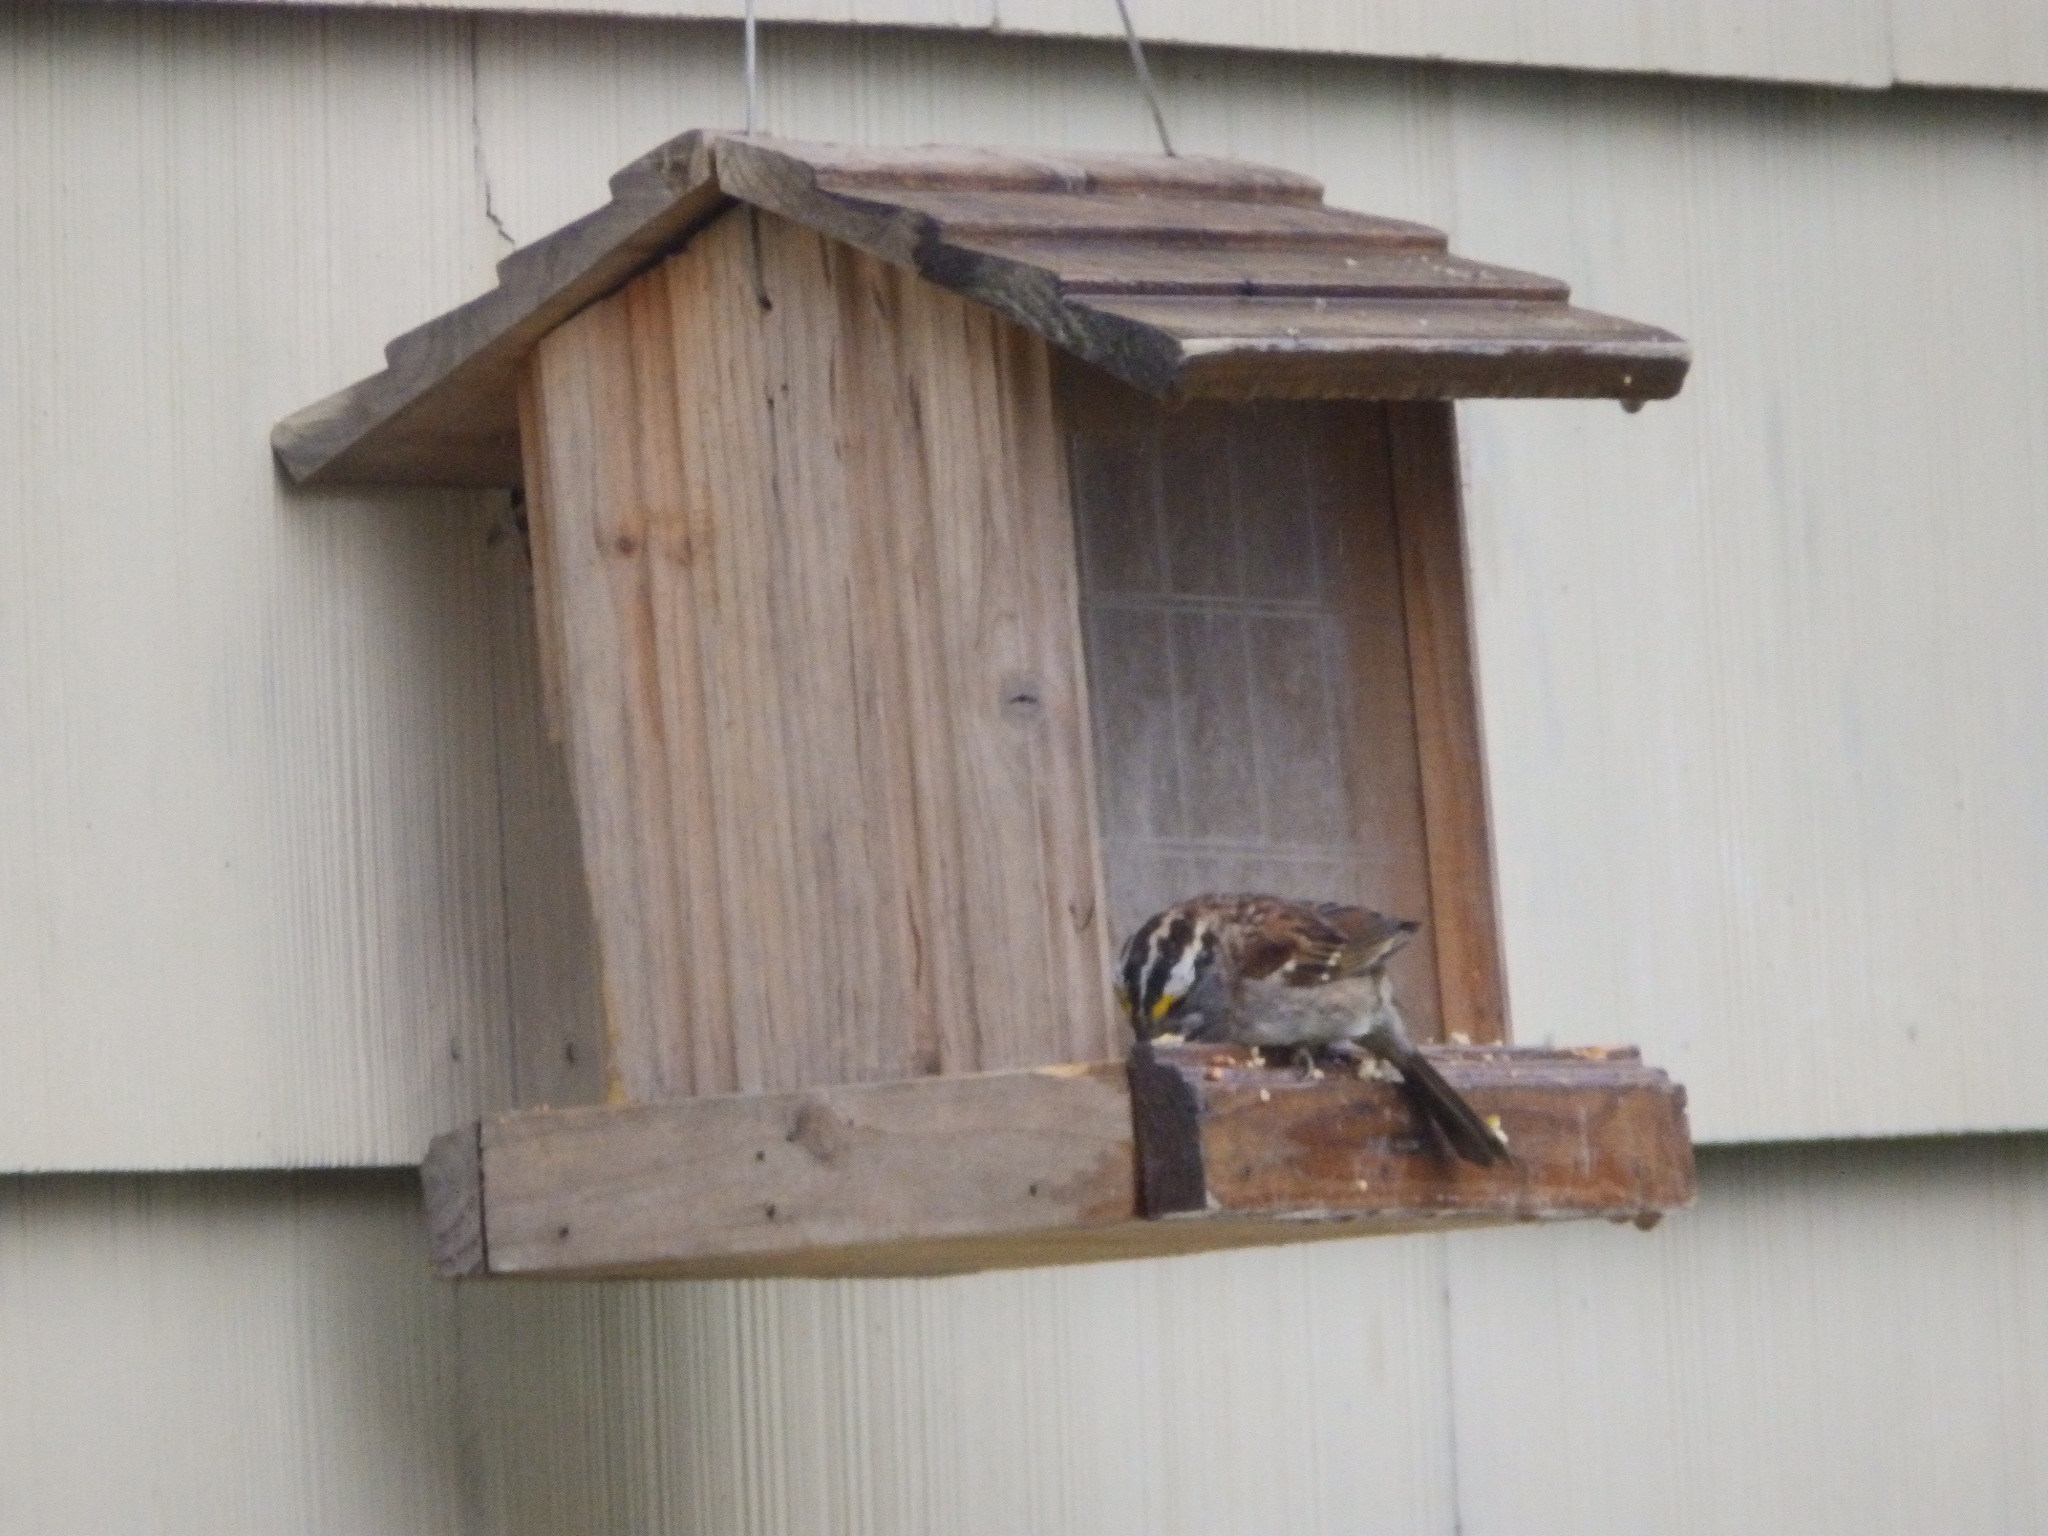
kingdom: Animalia
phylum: Chordata
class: Aves
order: Passeriformes
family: Passerellidae
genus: Zonotrichia
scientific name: Zonotrichia albicollis
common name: White-throated sparrow
